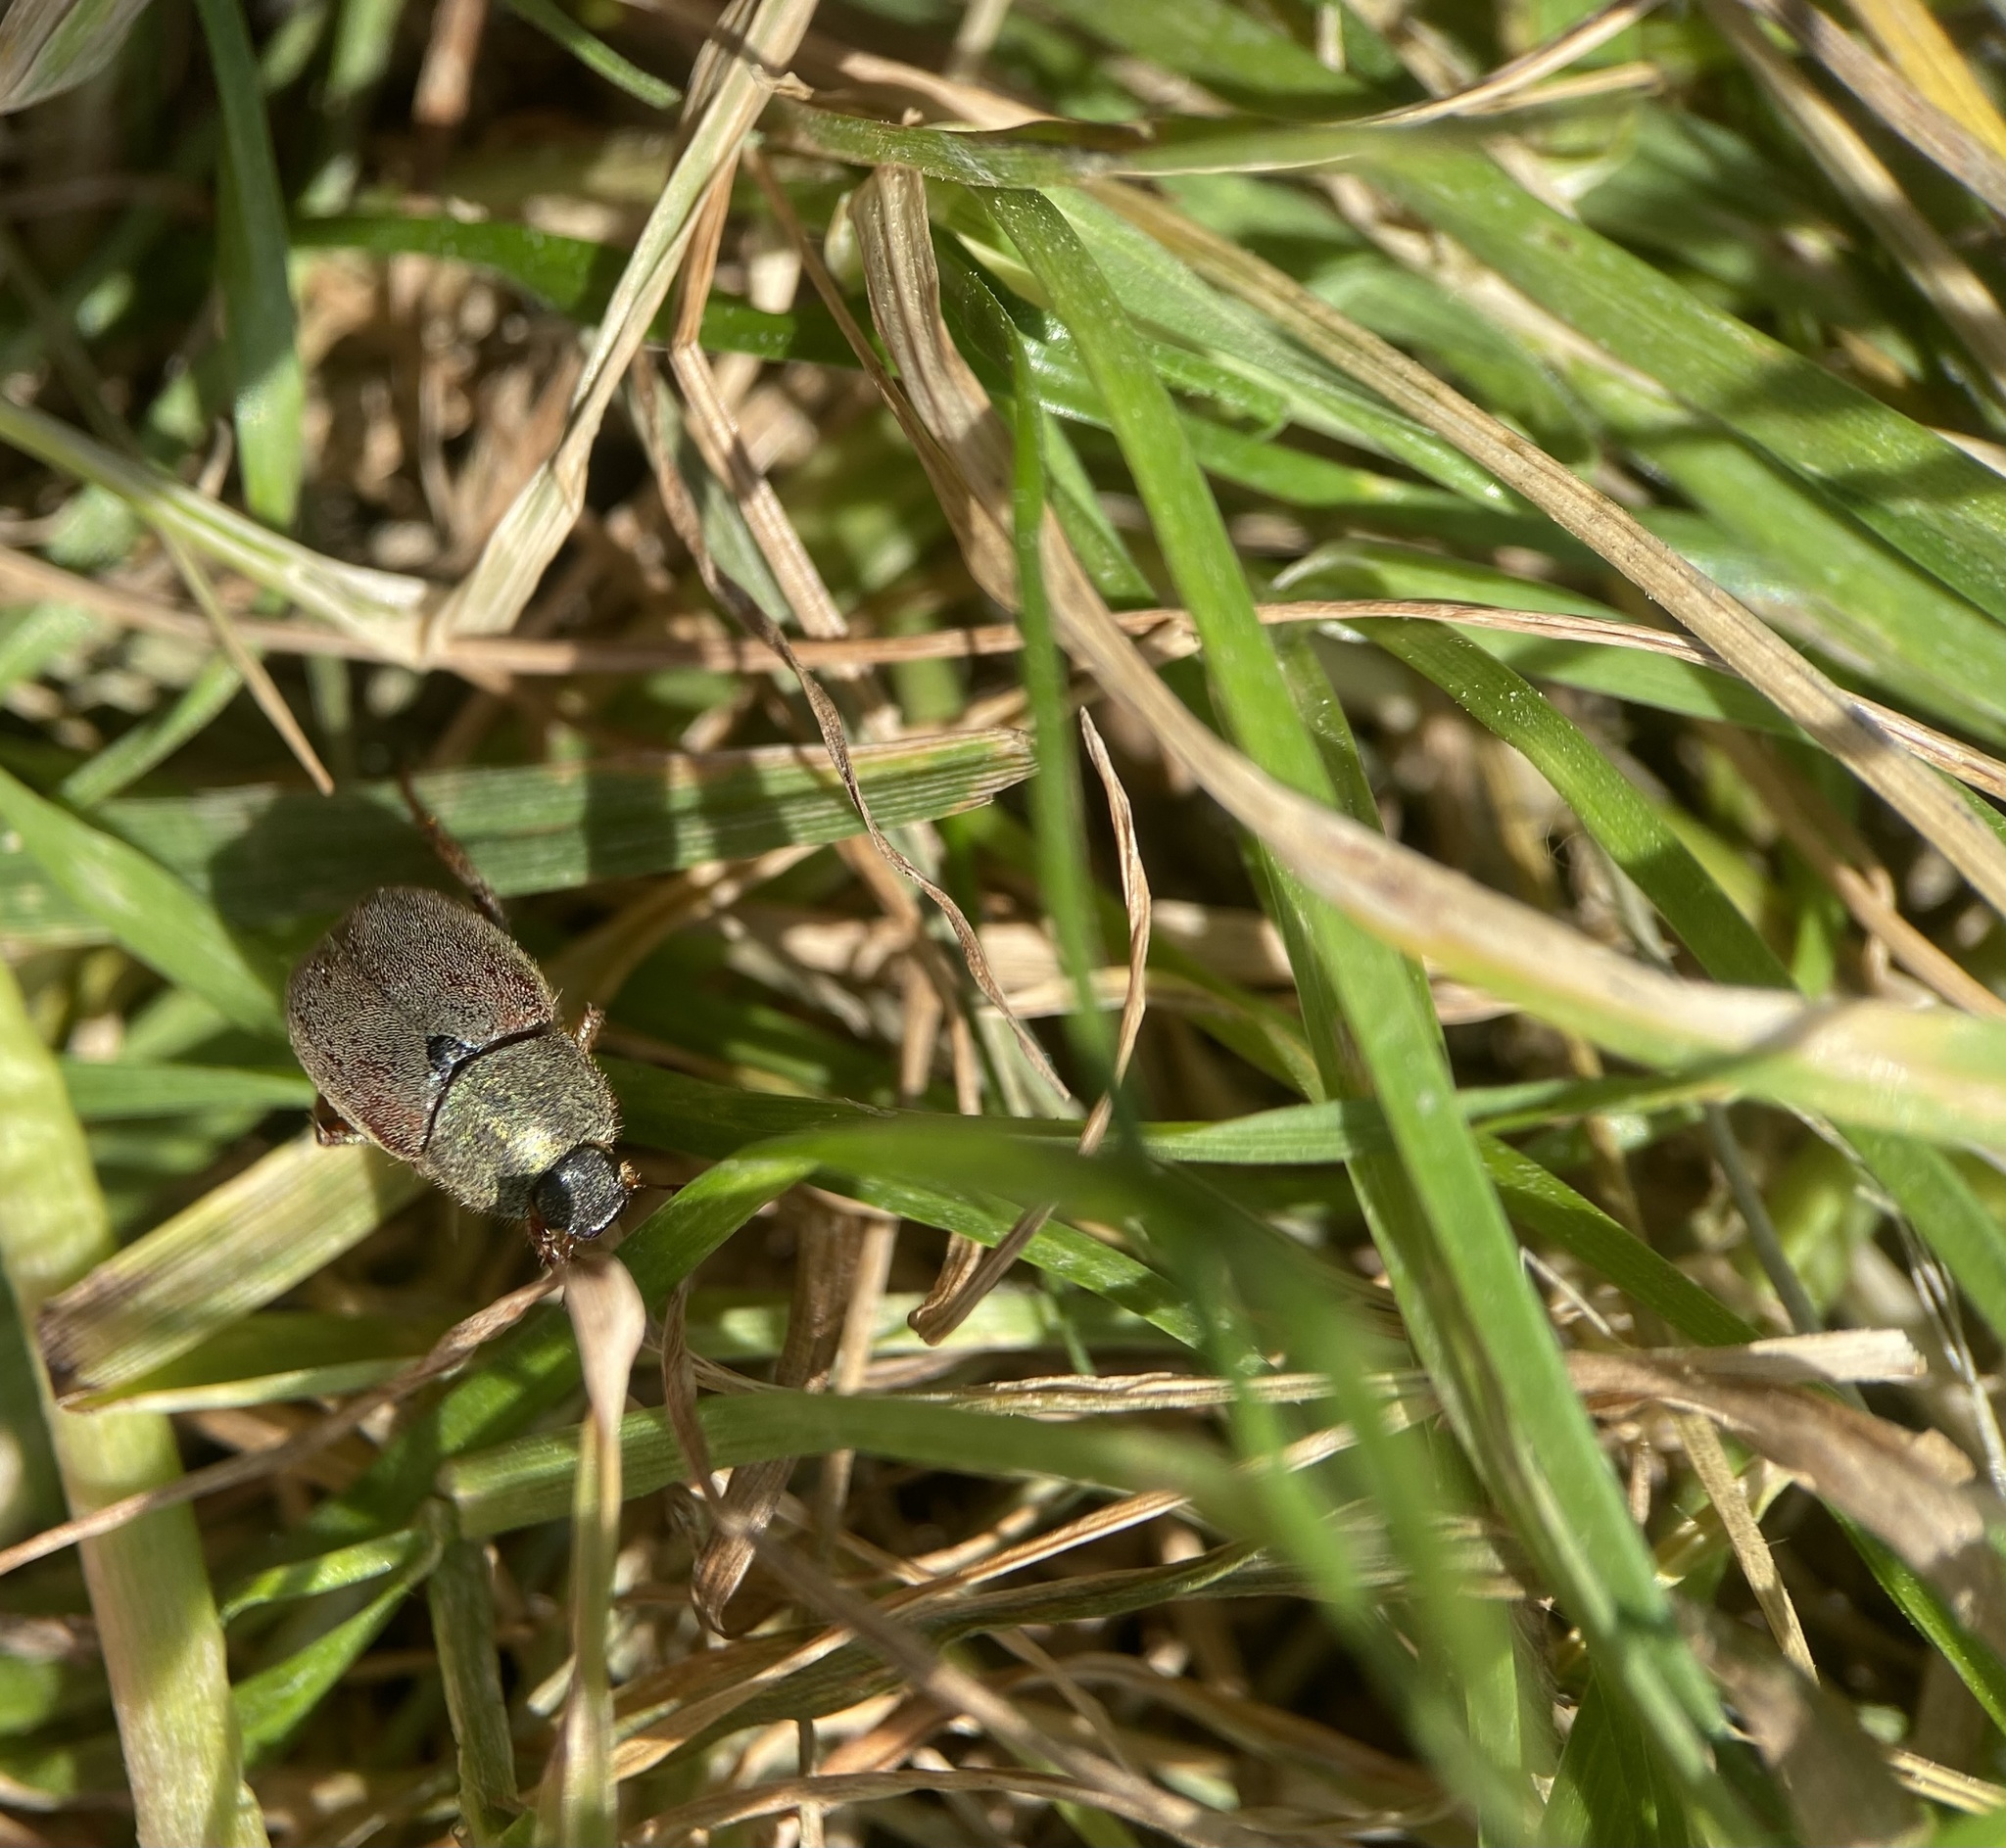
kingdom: Animalia
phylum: Arthropoda
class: Insecta
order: Coleoptera
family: Scarabaeidae
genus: Hoplia
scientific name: Hoplia philanthus
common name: Welsh chafer
